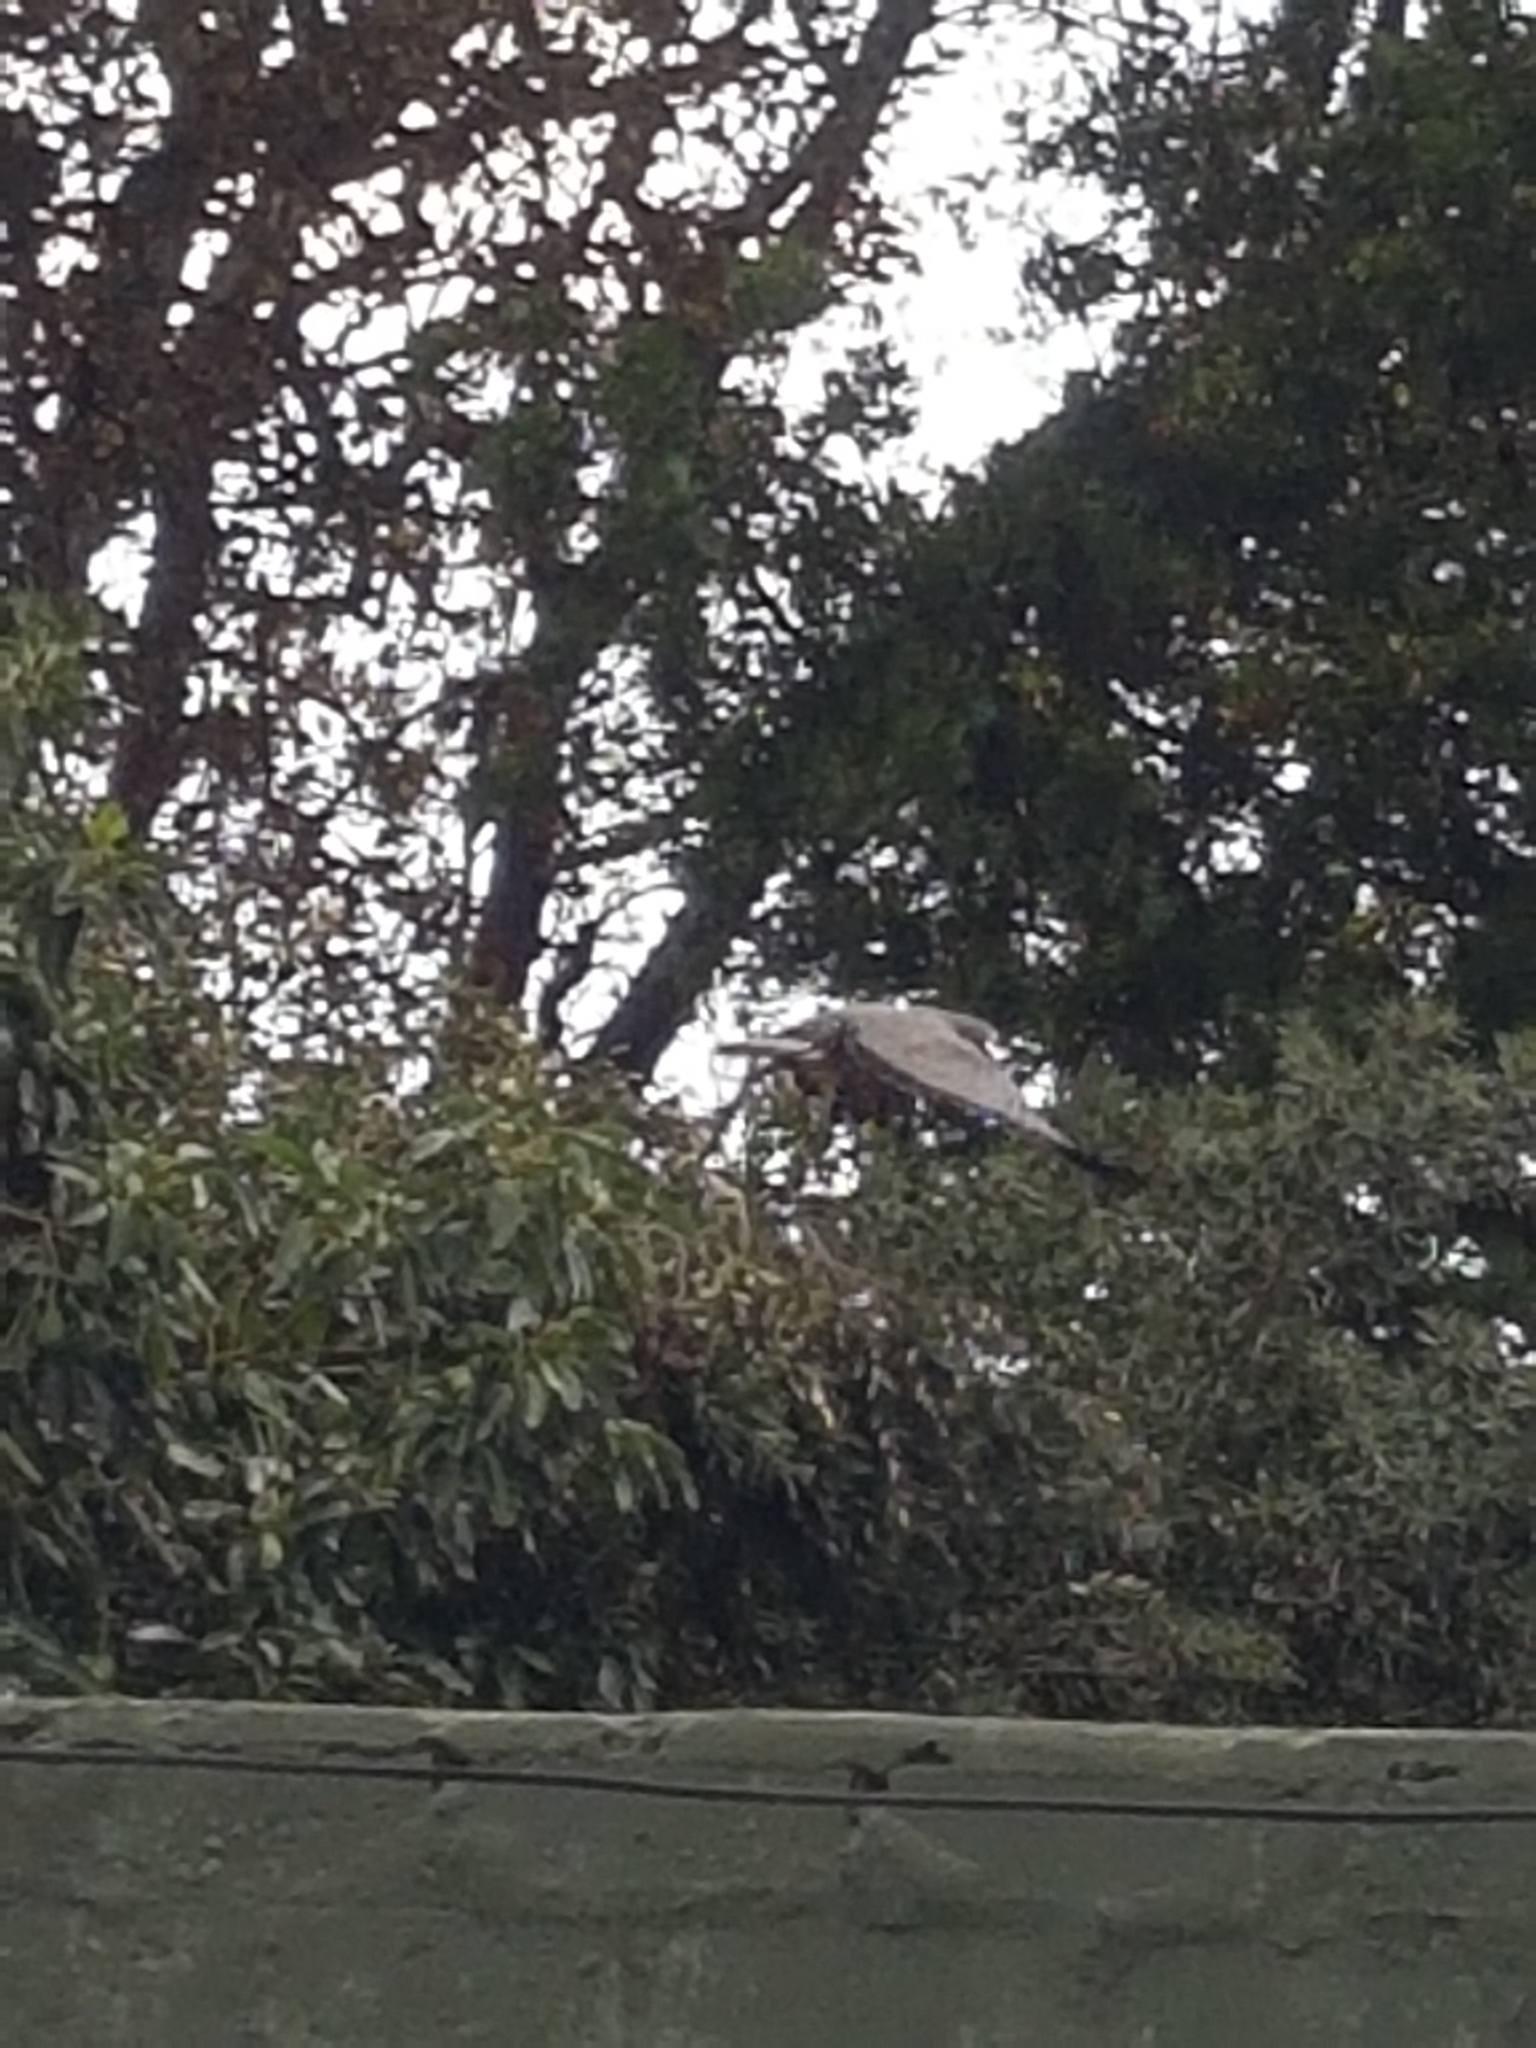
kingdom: Animalia
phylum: Chordata
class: Aves
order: Accipitriformes
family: Accipitridae
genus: Polyboroides
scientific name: Polyboroides typus
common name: African harrier-hawk
